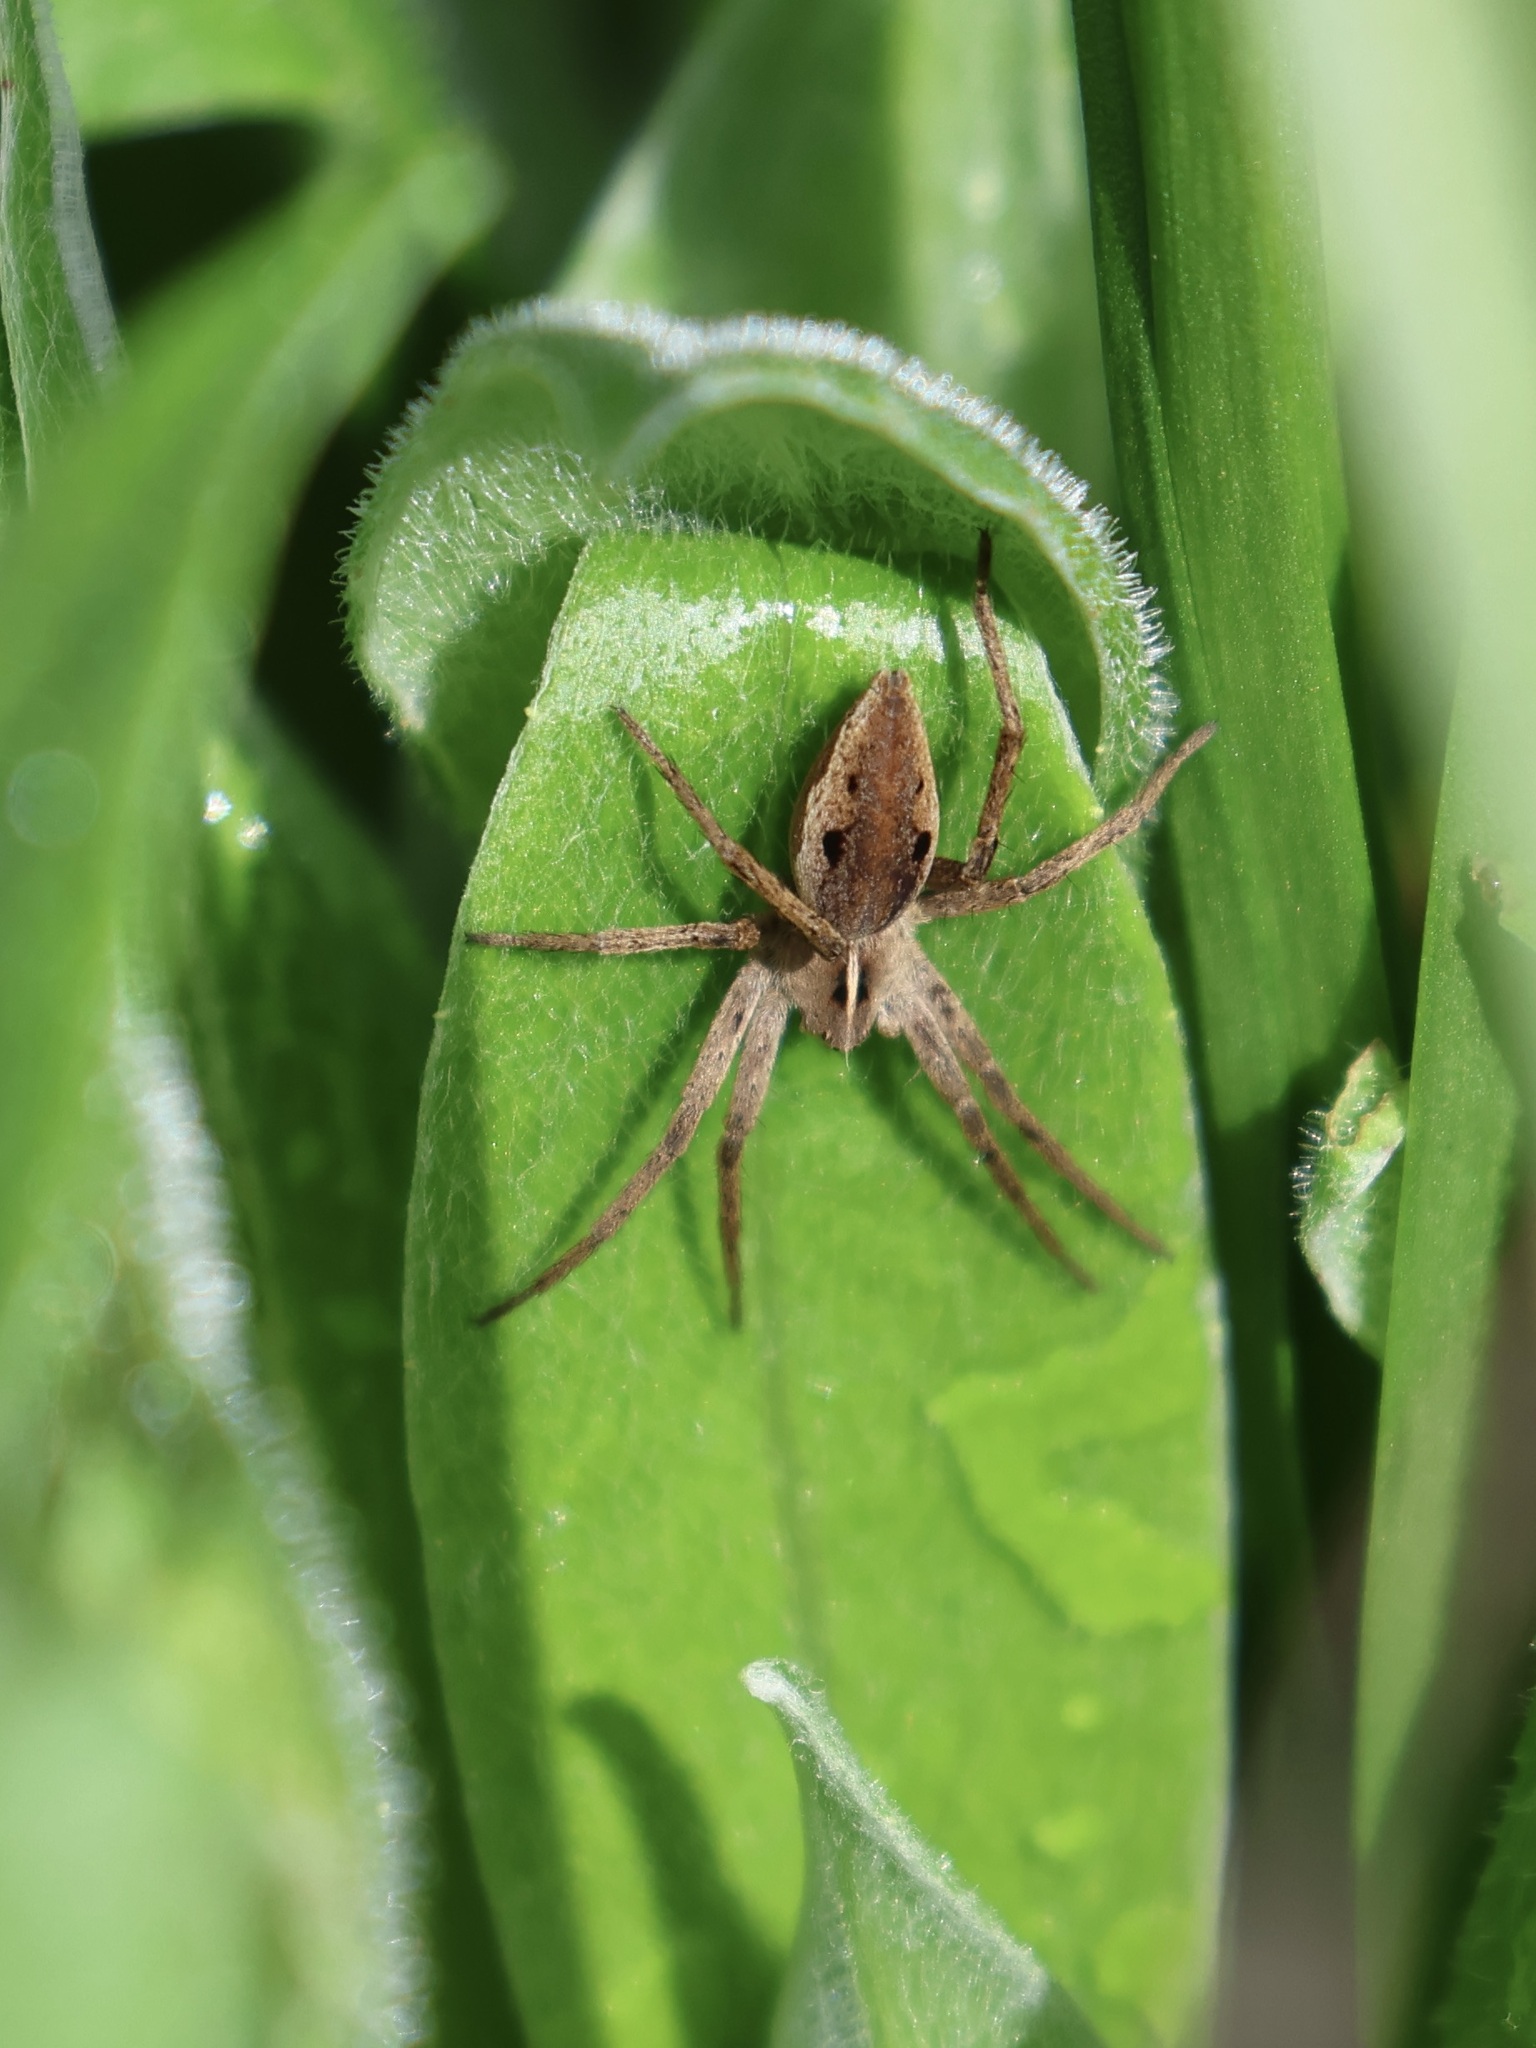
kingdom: Animalia
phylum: Arthropoda
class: Arachnida
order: Araneae
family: Pisauridae
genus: Pisaura
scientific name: Pisaura mirabilis
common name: Tent spider
